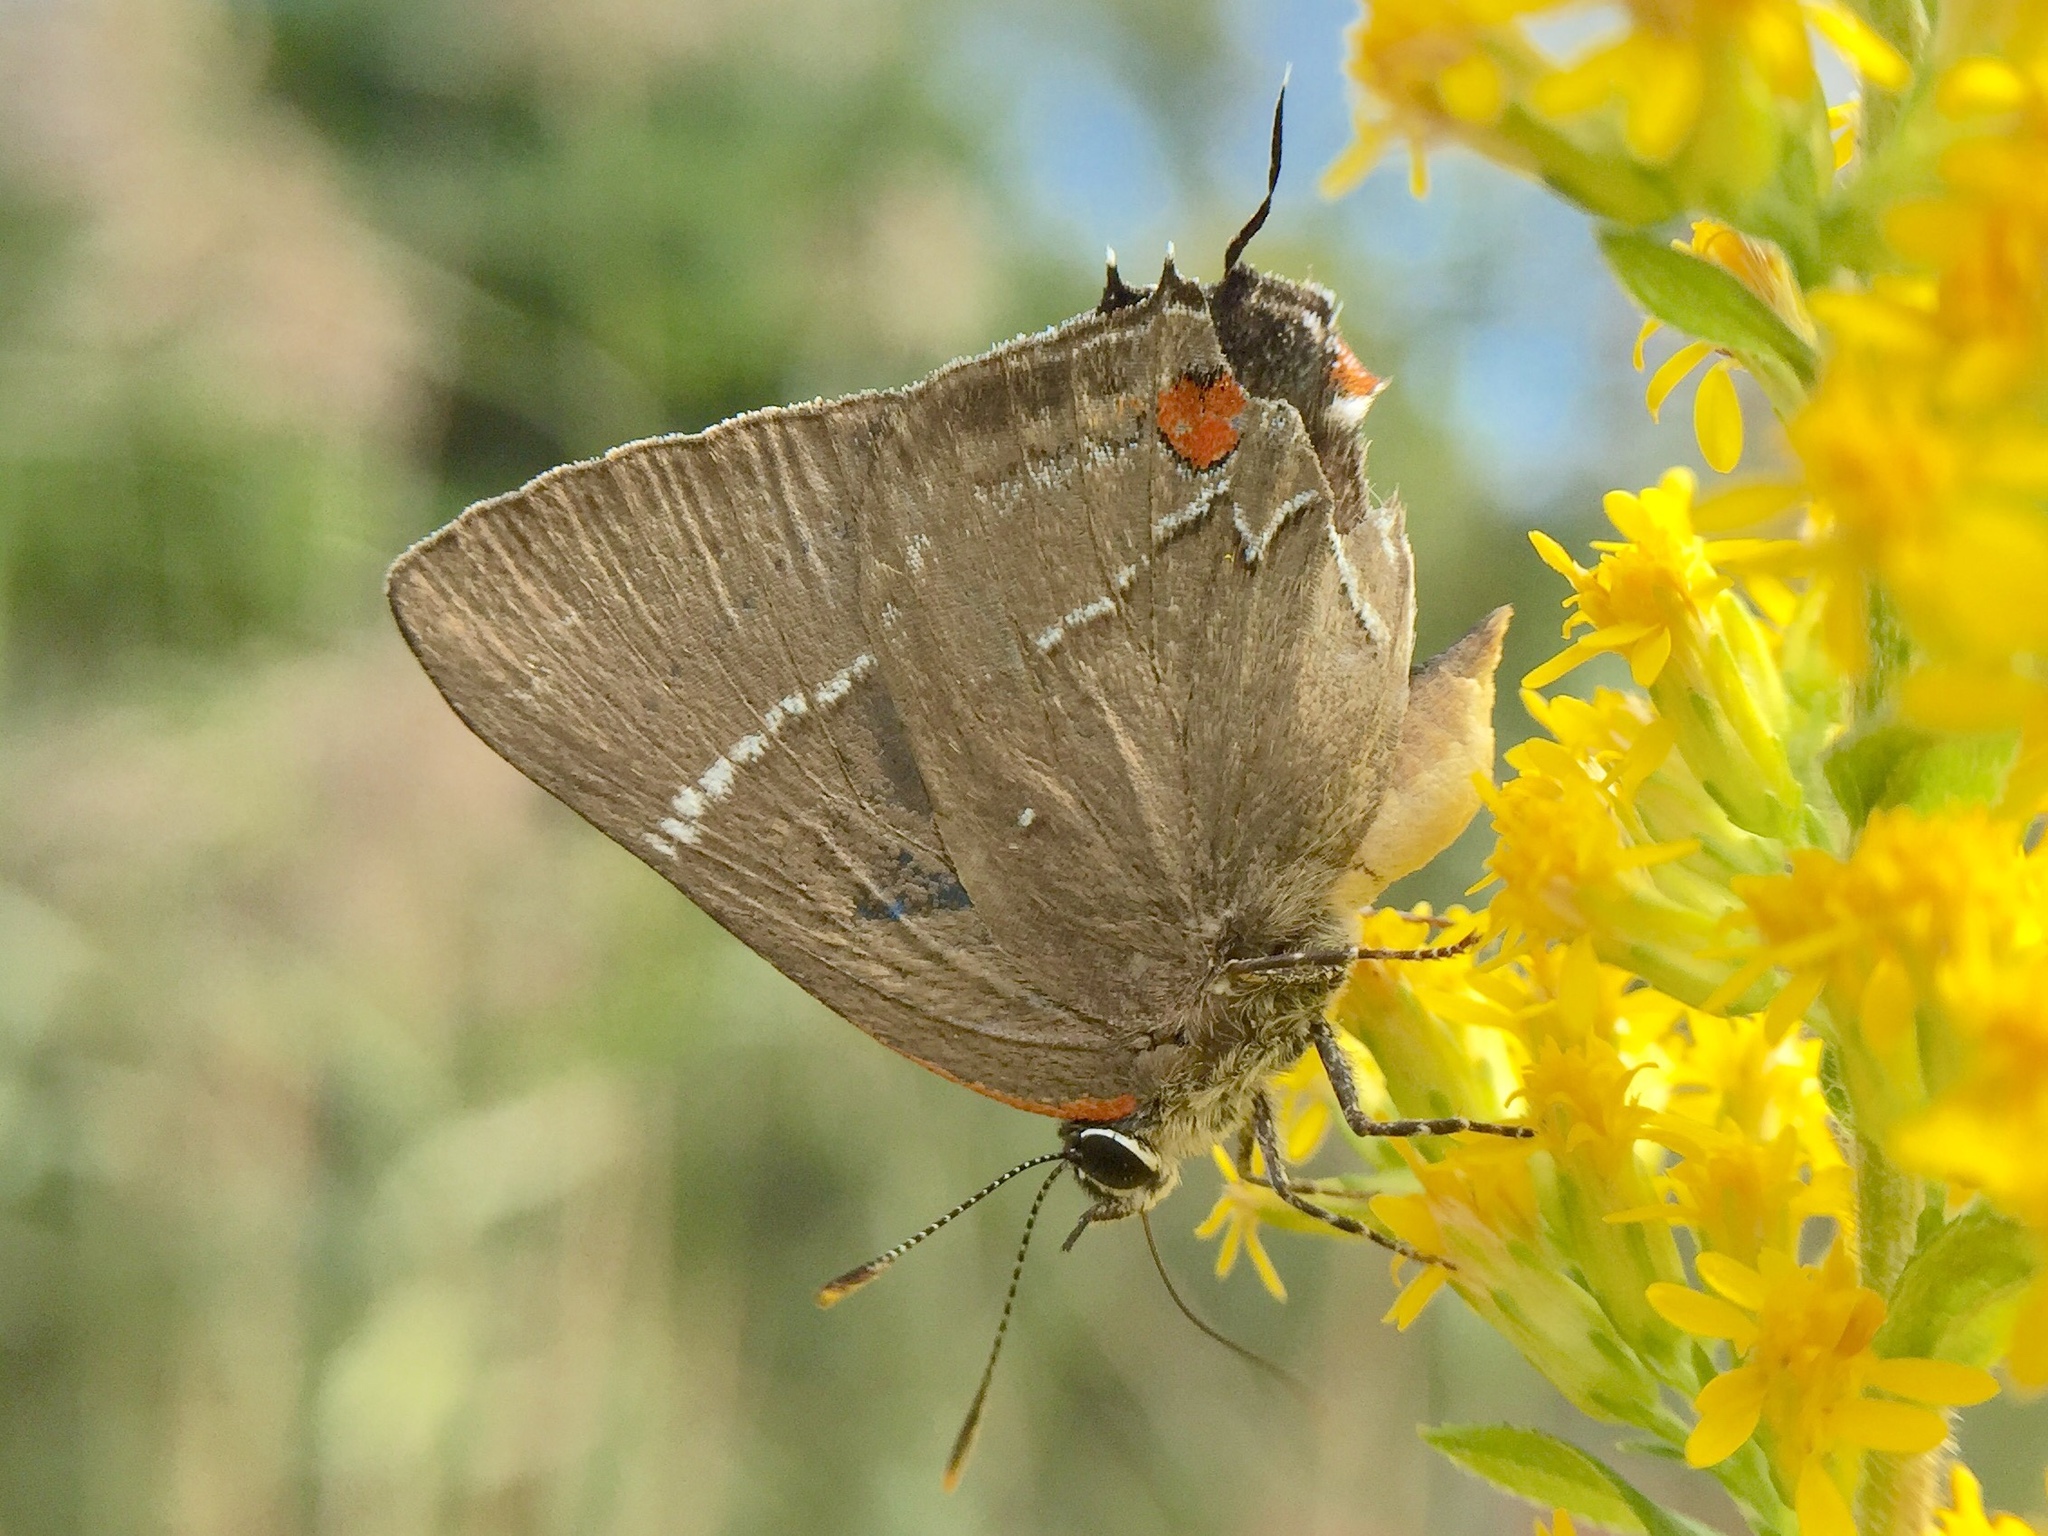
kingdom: Animalia
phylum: Arthropoda
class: Insecta
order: Lepidoptera
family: Lycaenidae
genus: Parrhasius
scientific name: Parrhasius m-album
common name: White m hairstreak
